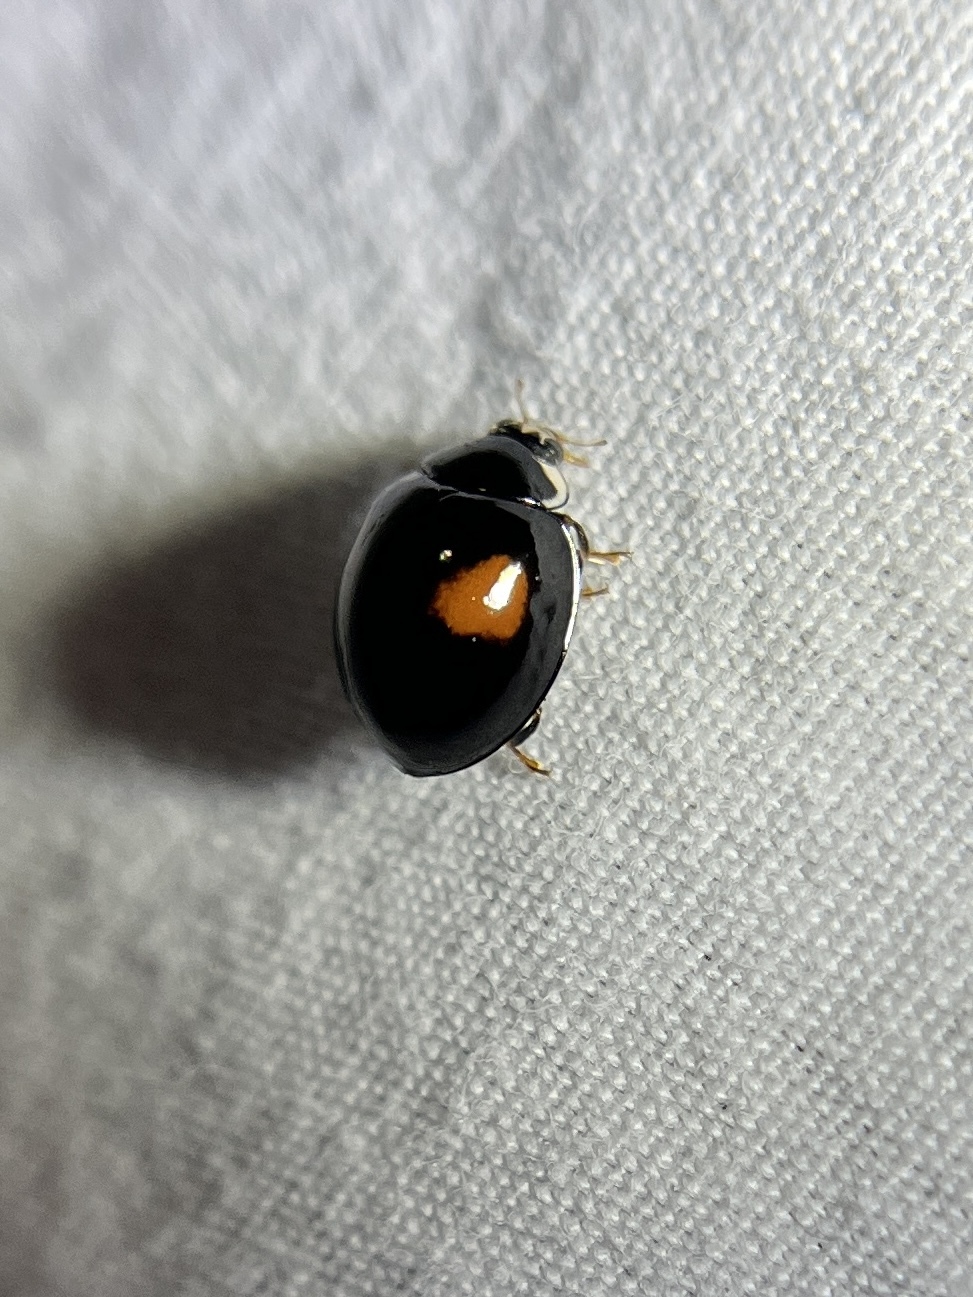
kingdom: Animalia
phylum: Arthropoda
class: Insecta
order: Coleoptera
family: Coccinellidae
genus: Olla
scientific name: Olla v-nigrum
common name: Ashy gray lady beetle
